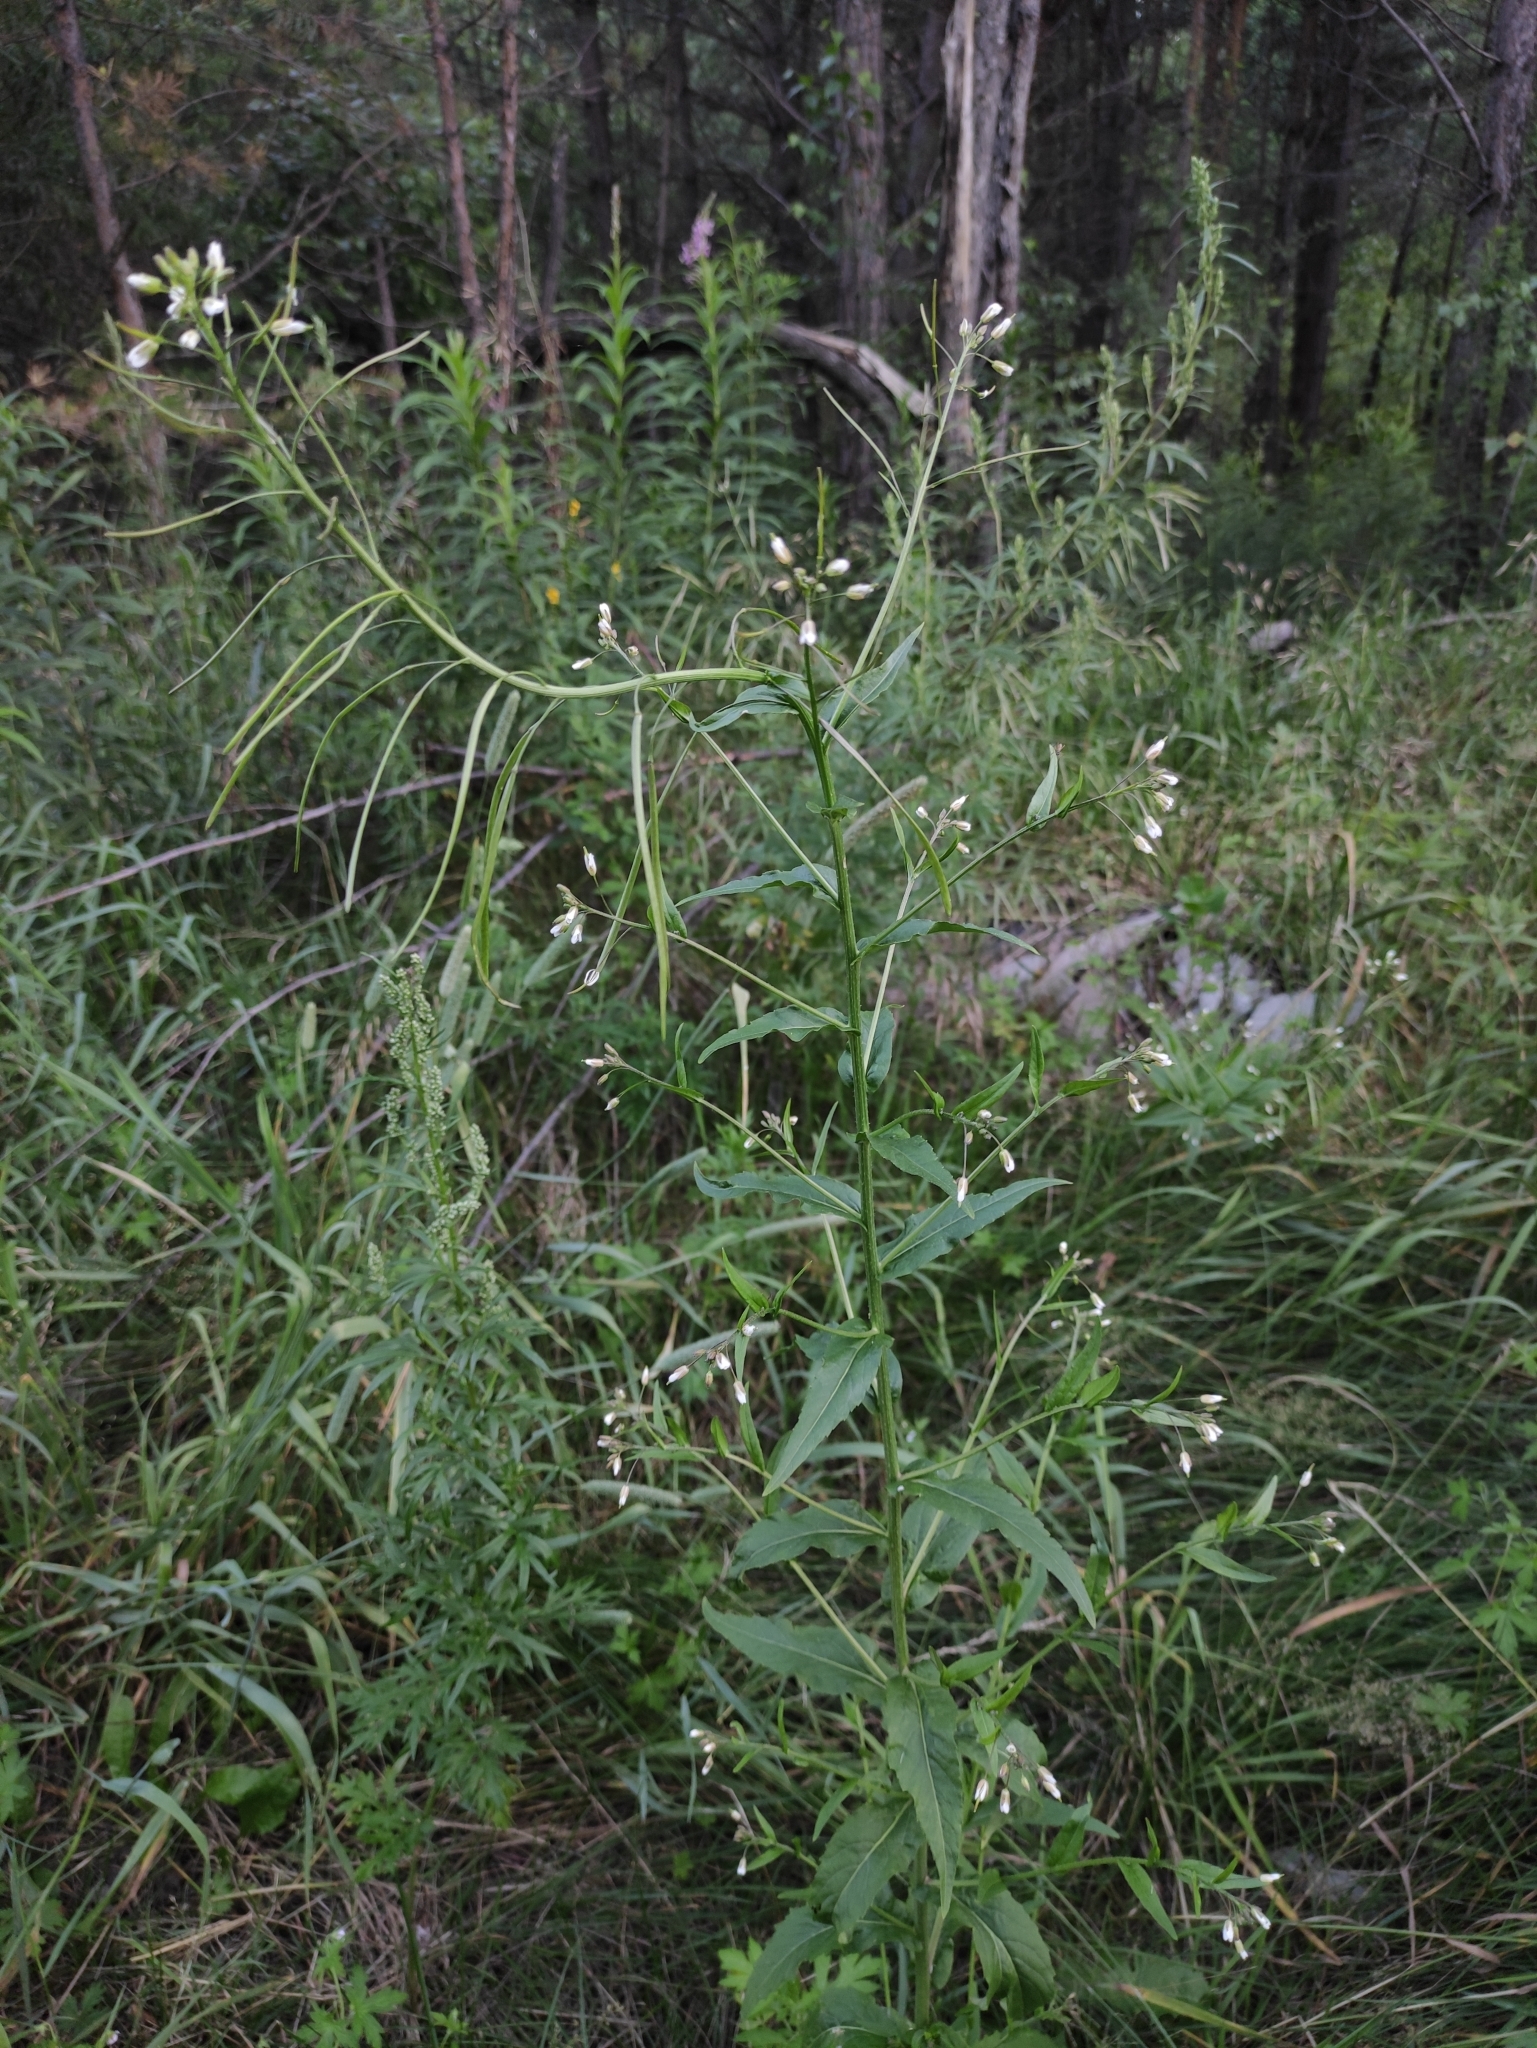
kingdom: Plantae
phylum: Tracheophyta
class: Magnoliopsida
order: Brassicales
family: Brassicaceae
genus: Catolobus
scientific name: Catolobus pendulus
